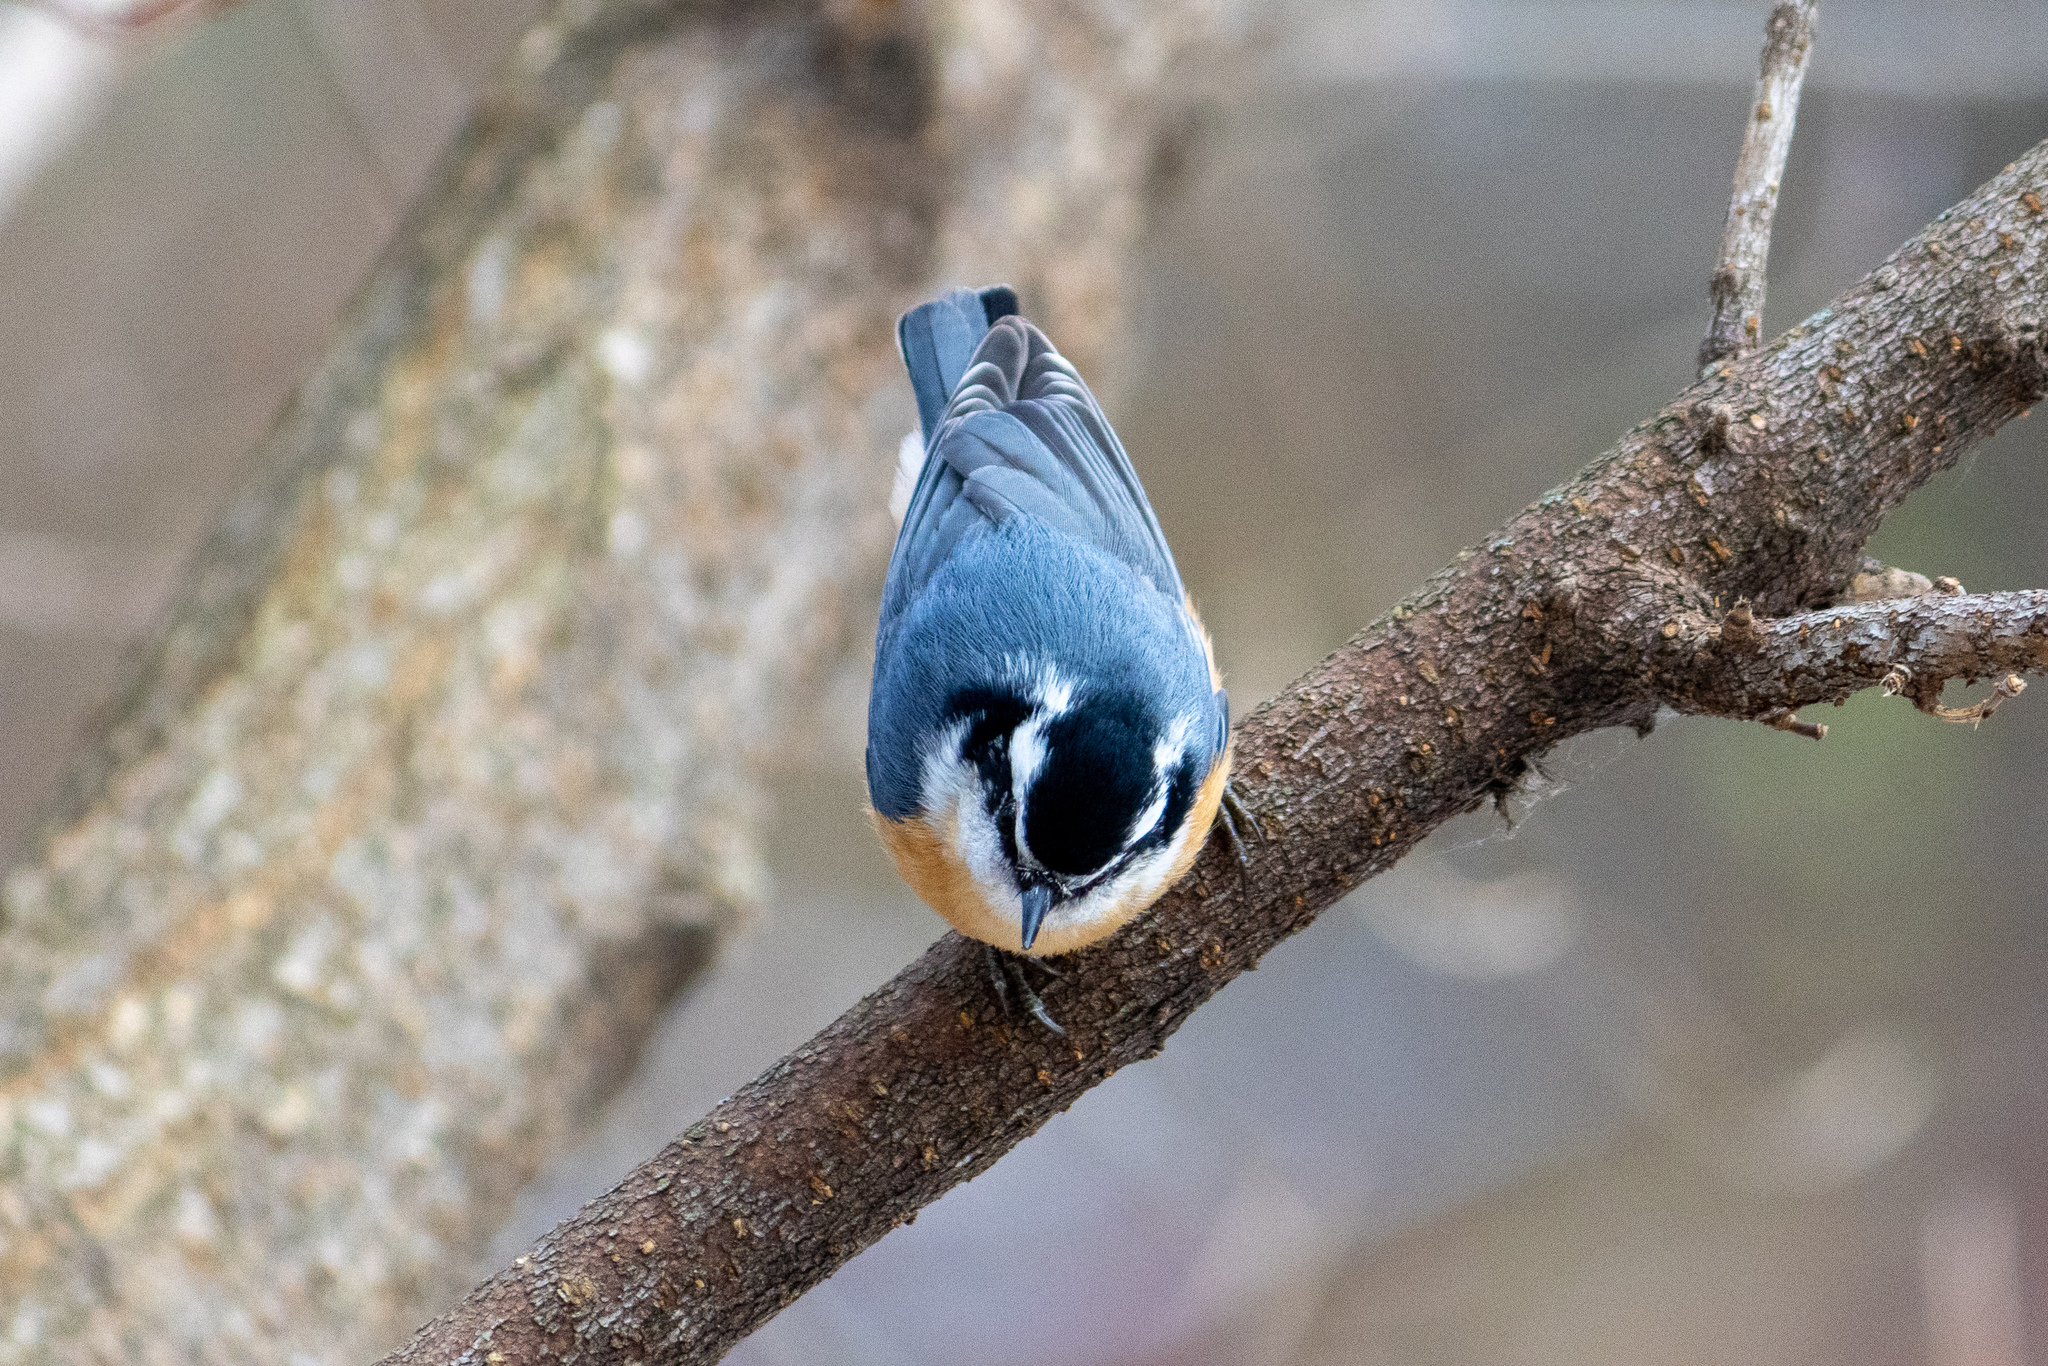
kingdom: Animalia
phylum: Chordata
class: Aves
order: Passeriformes
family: Sittidae
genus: Sitta
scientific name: Sitta canadensis
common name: Red-breasted nuthatch
